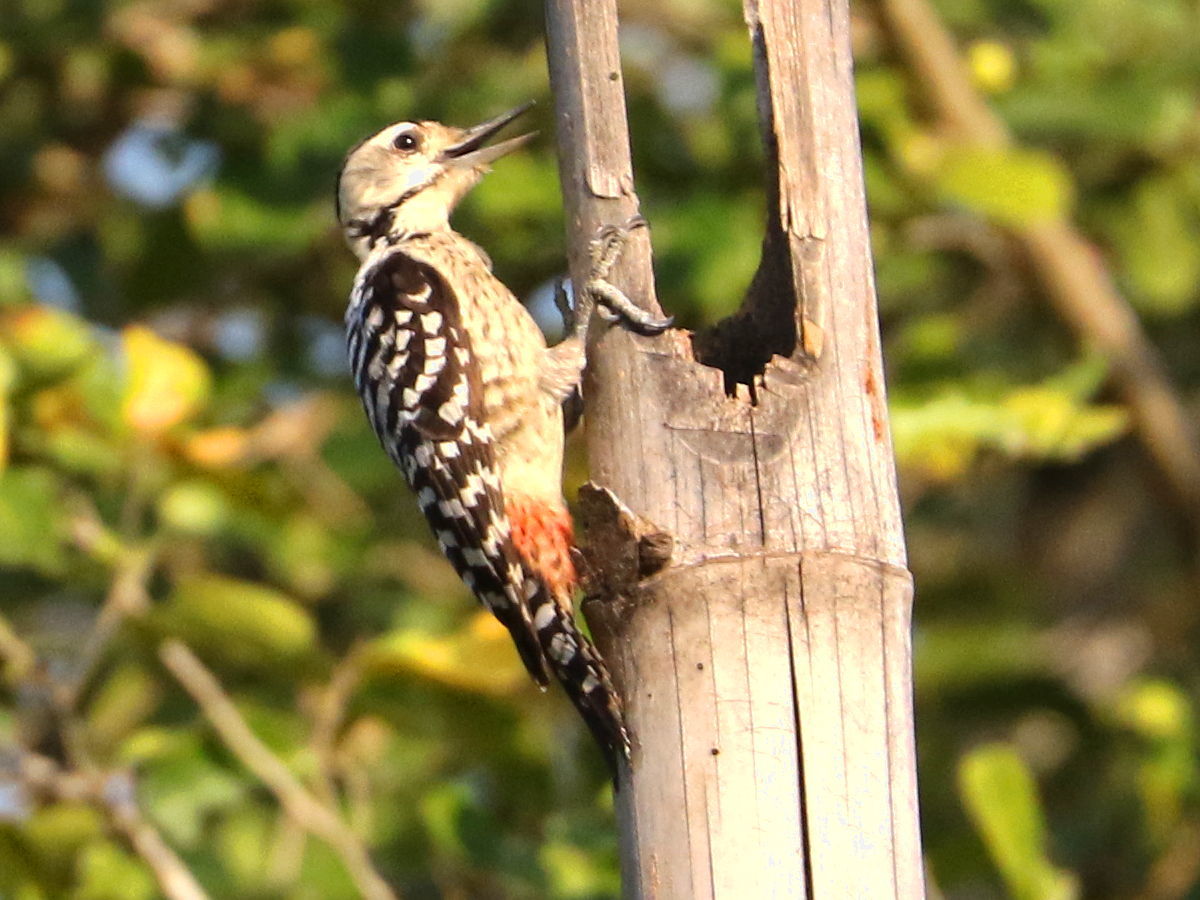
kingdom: Animalia
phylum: Chordata
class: Aves
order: Piciformes
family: Picidae
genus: Dendrocopos
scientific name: Dendrocopos analis
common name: Freckle-breasted woodpecker
